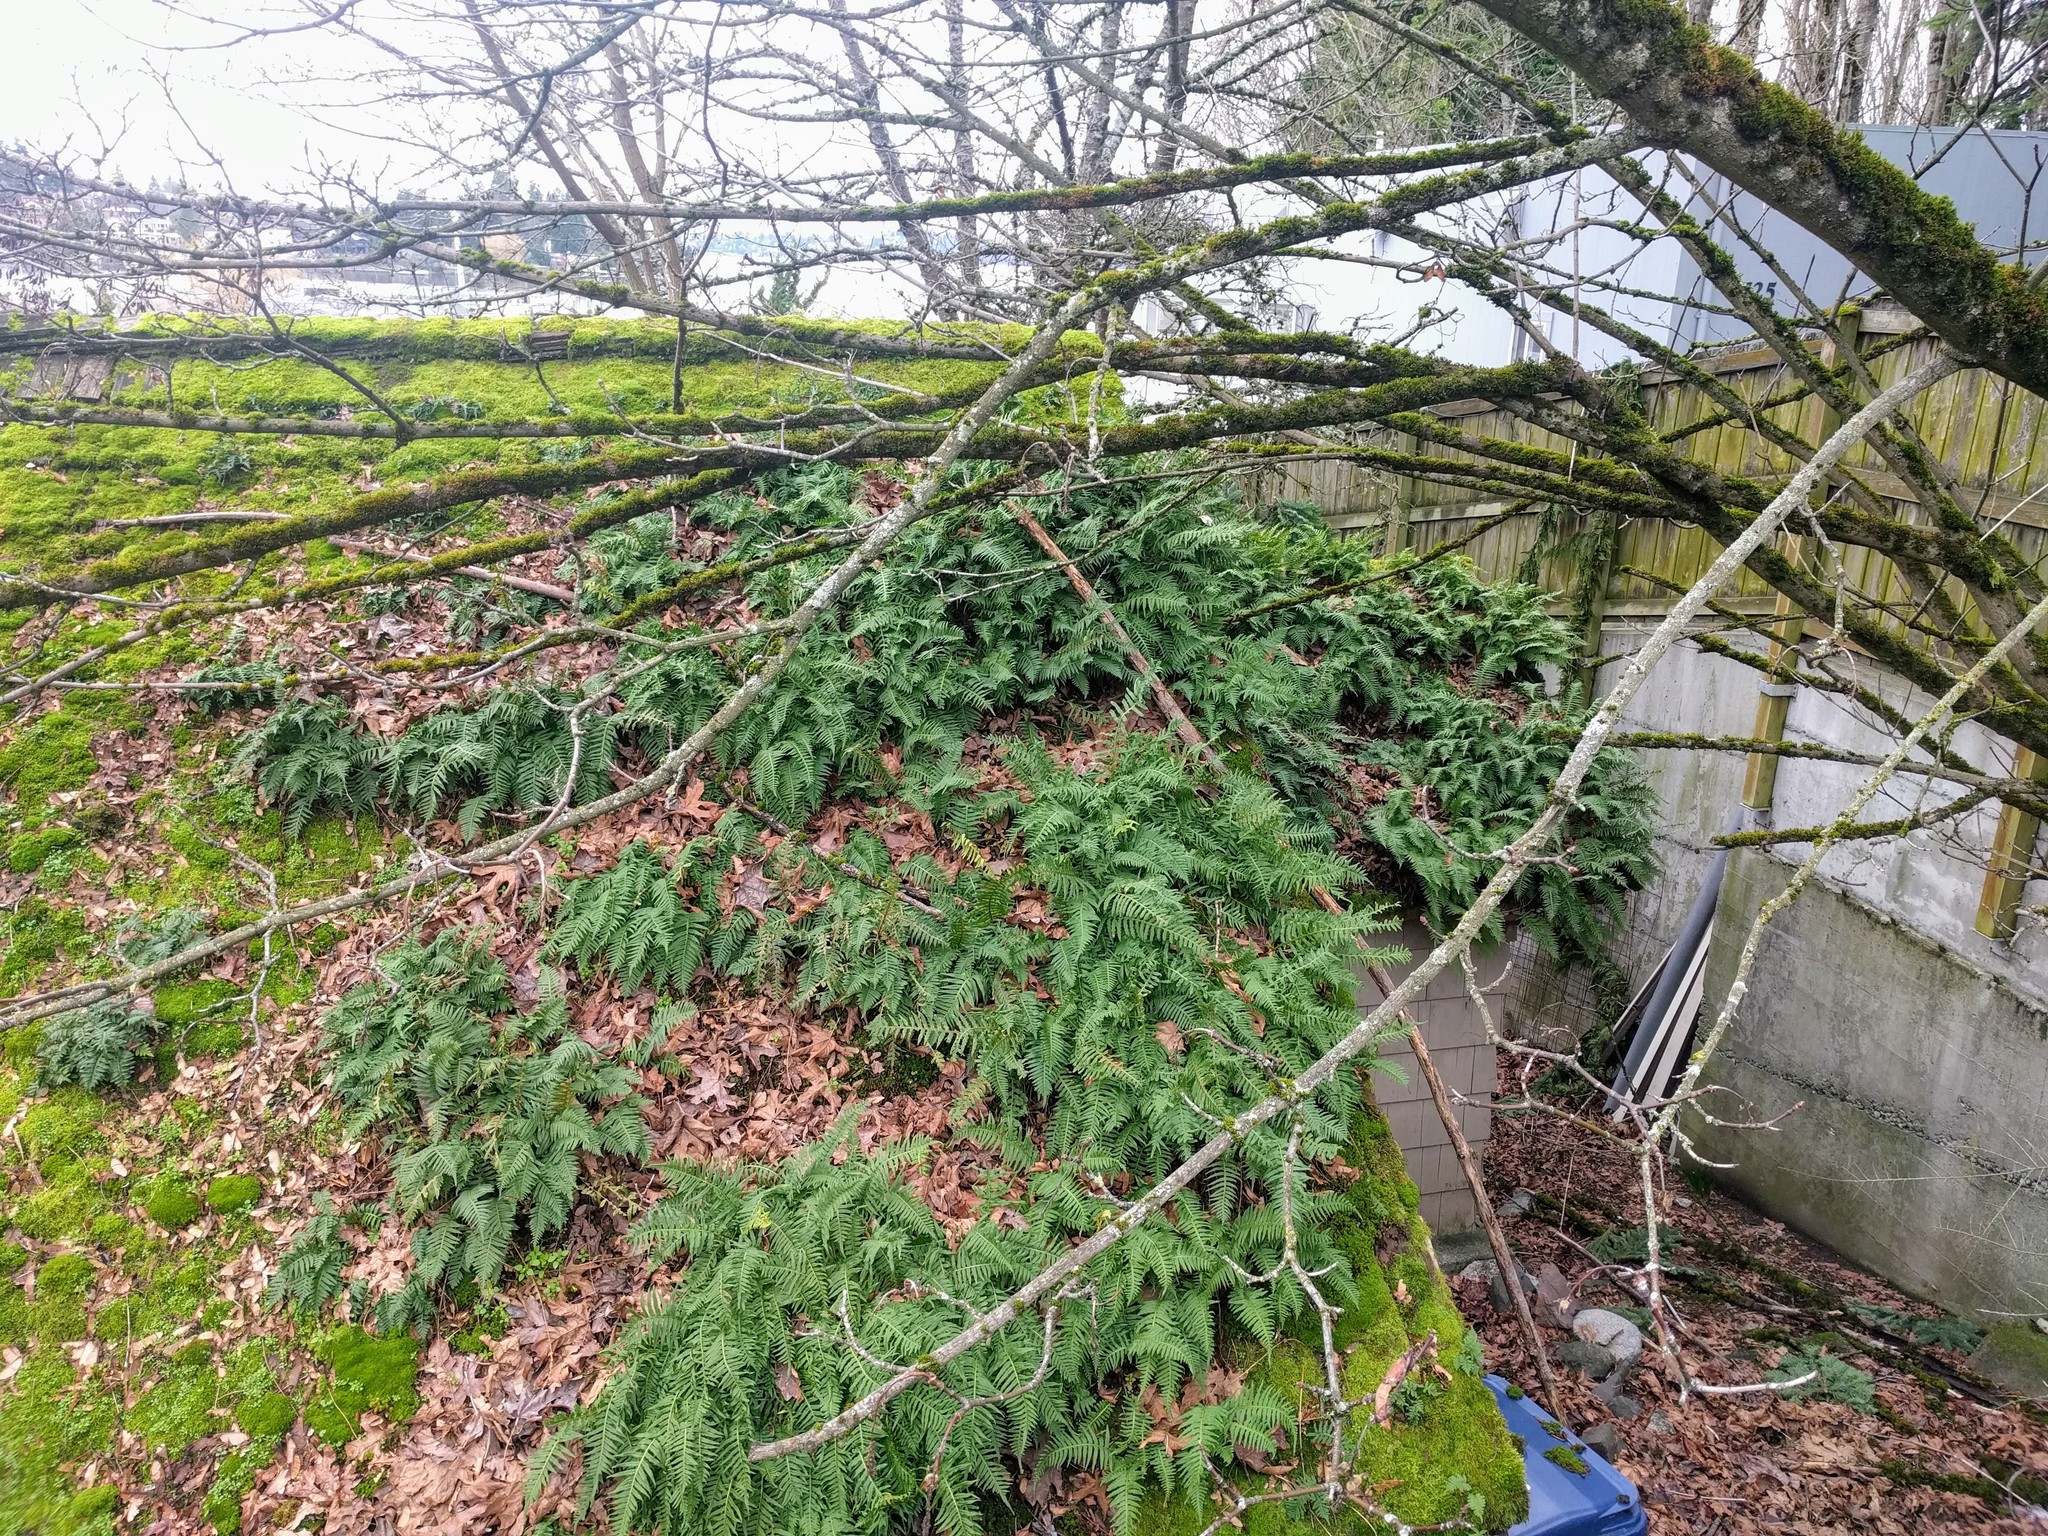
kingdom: Plantae
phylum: Tracheophyta
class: Polypodiopsida
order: Polypodiales
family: Polypodiaceae
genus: Polypodium
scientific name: Polypodium glycyrrhiza
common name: Licorice fern
